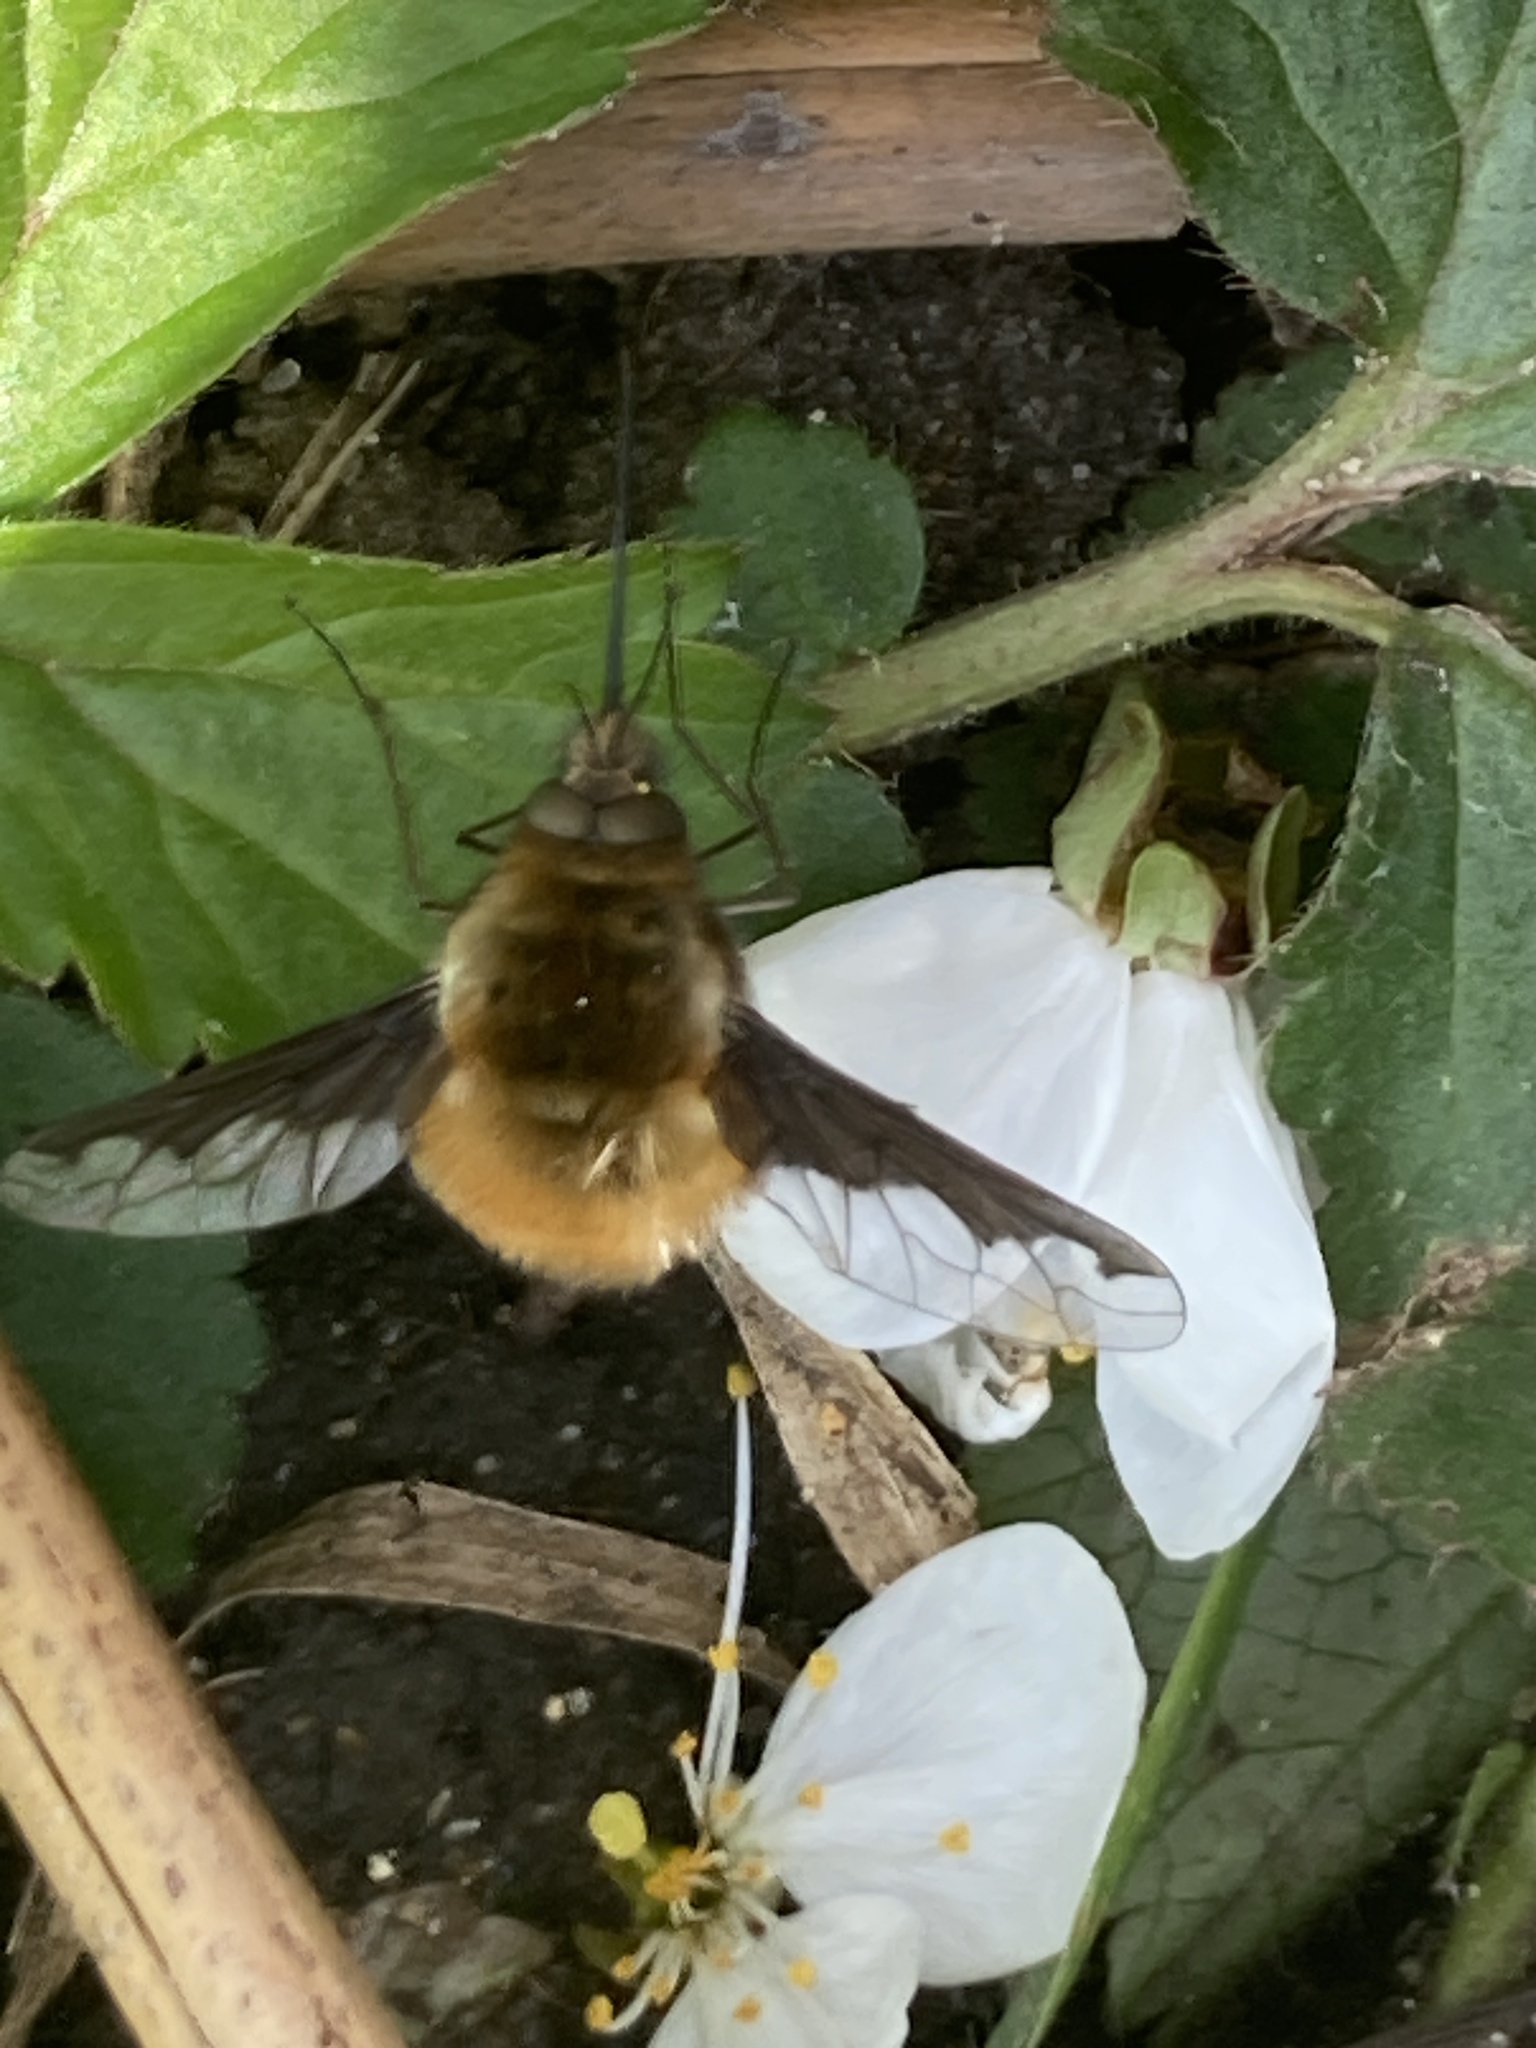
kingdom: Animalia
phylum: Arthropoda
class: Insecta
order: Diptera
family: Bombyliidae
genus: Bombylius
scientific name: Bombylius major
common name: Bee fly
